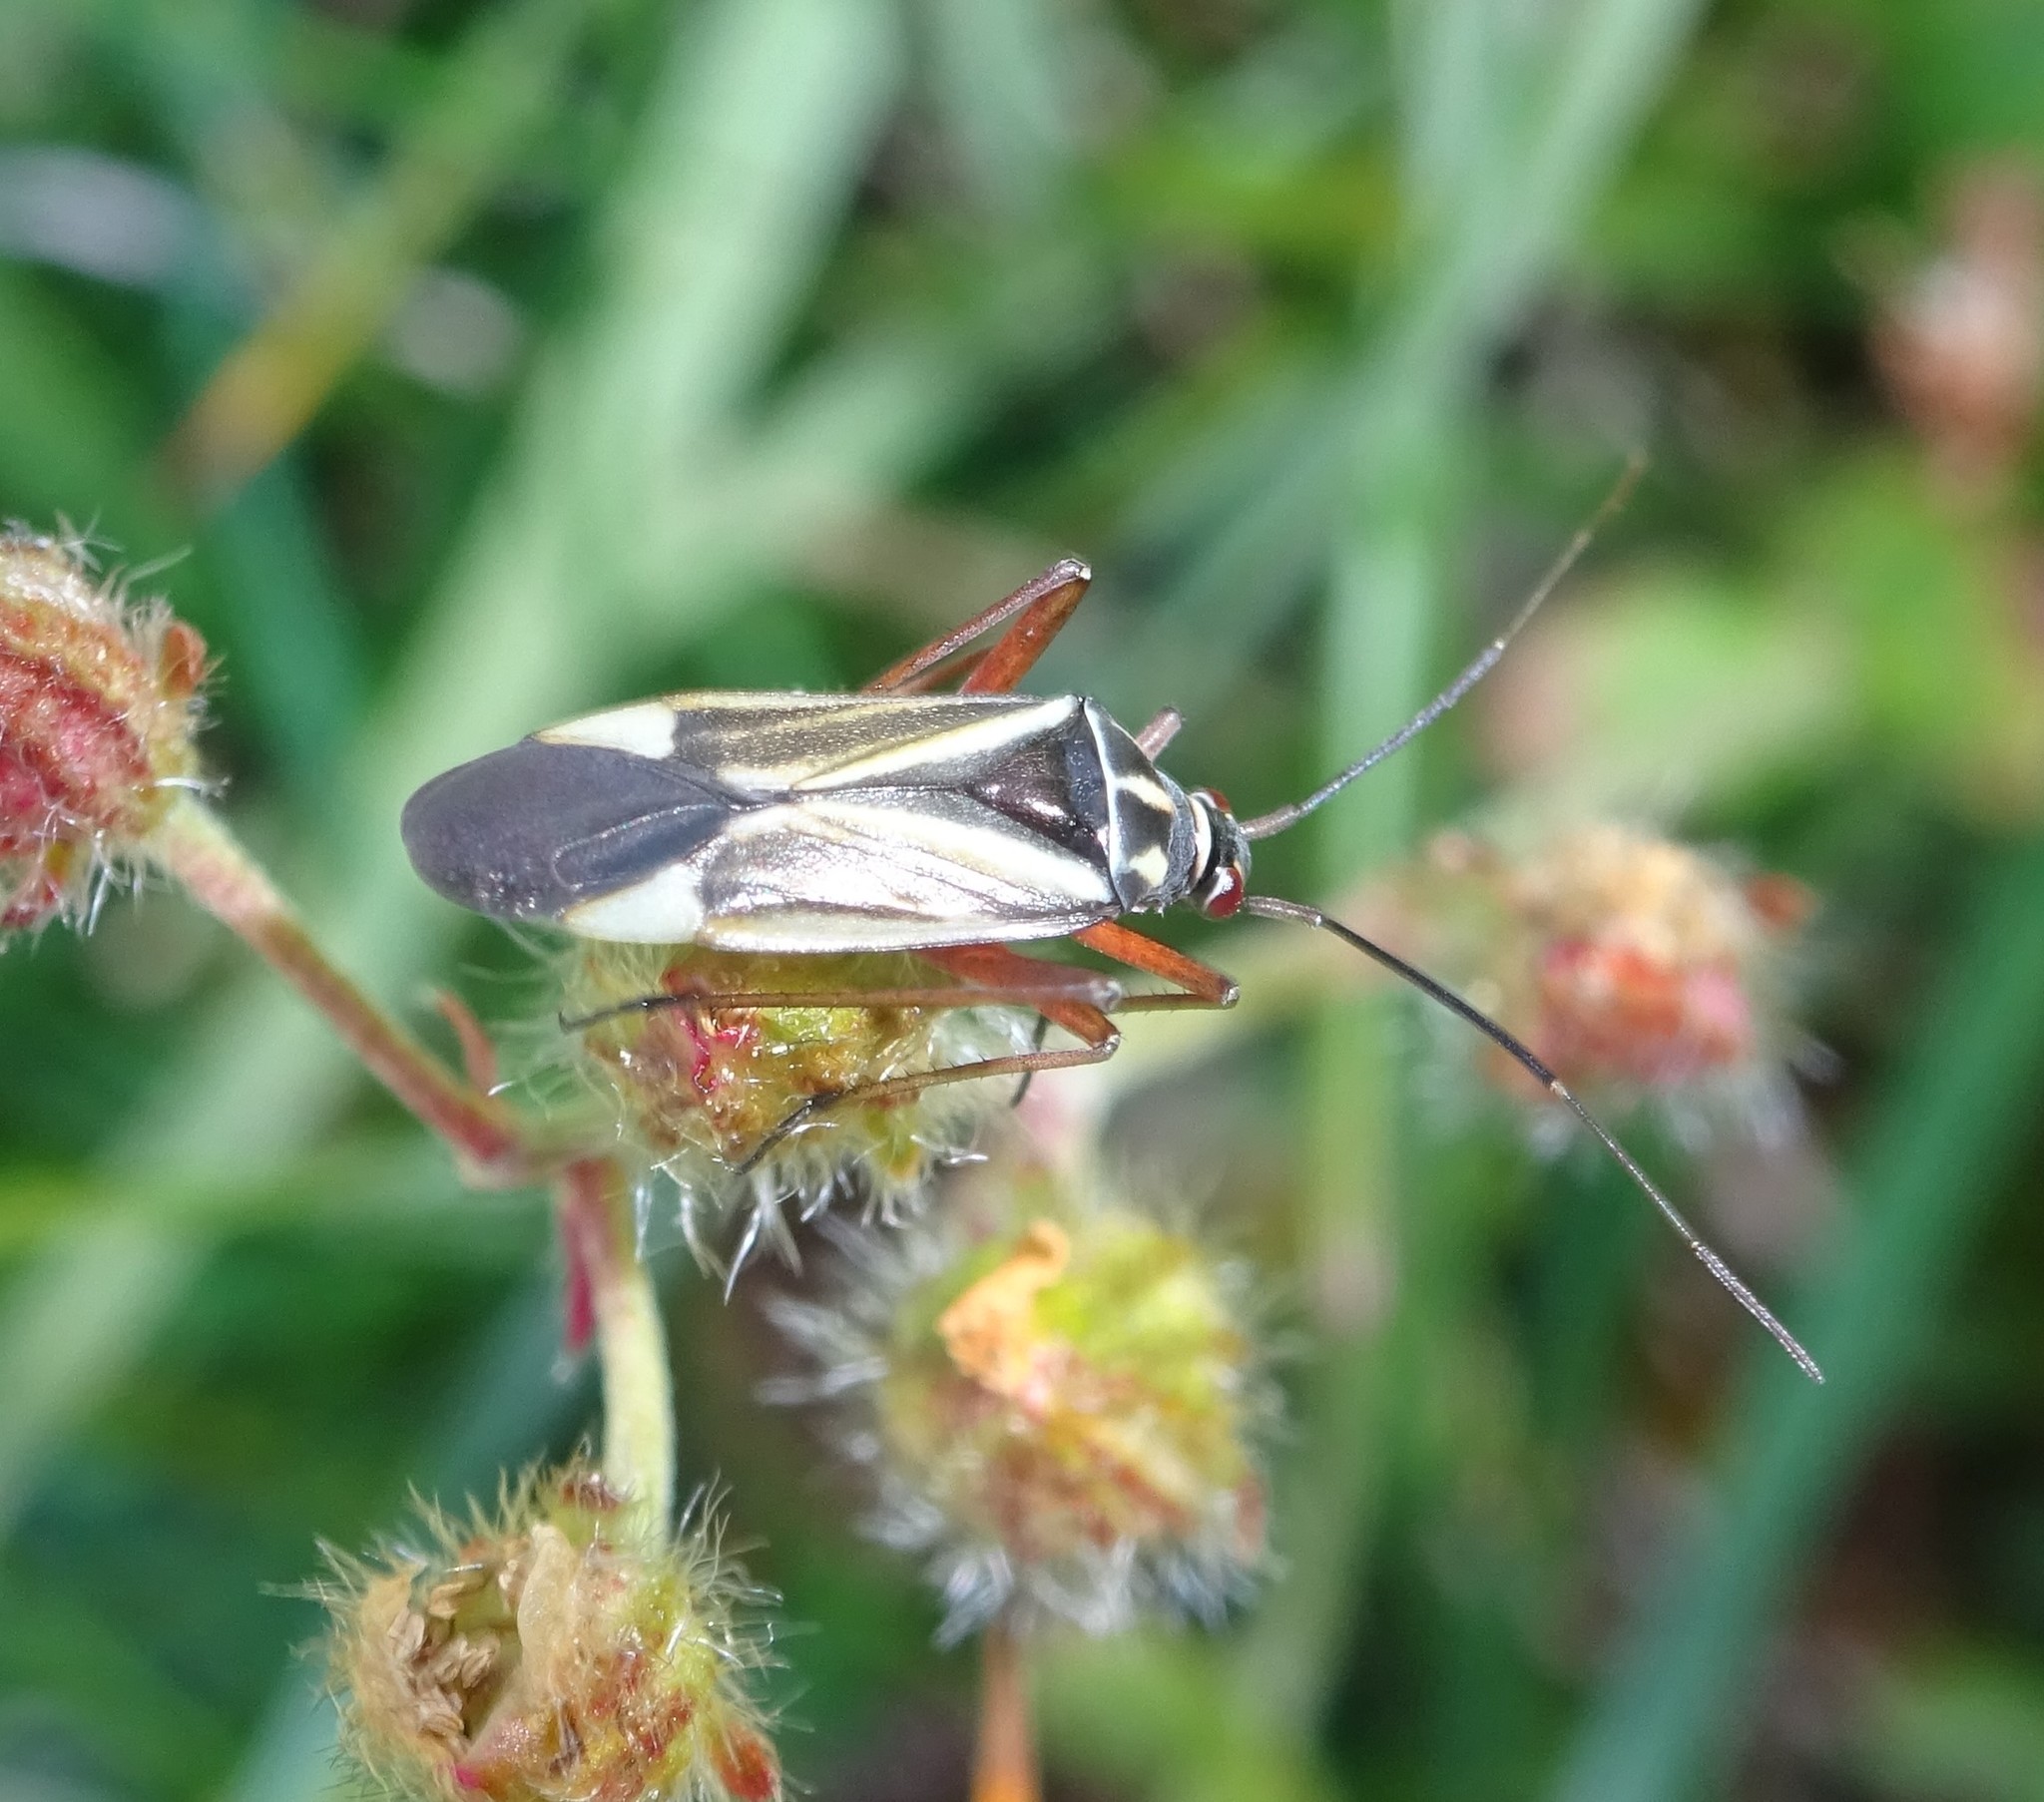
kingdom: Animalia
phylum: Arthropoda
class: Insecta
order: Hemiptera
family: Miridae
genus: Hadrodemus
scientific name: Hadrodemus m-flavum
